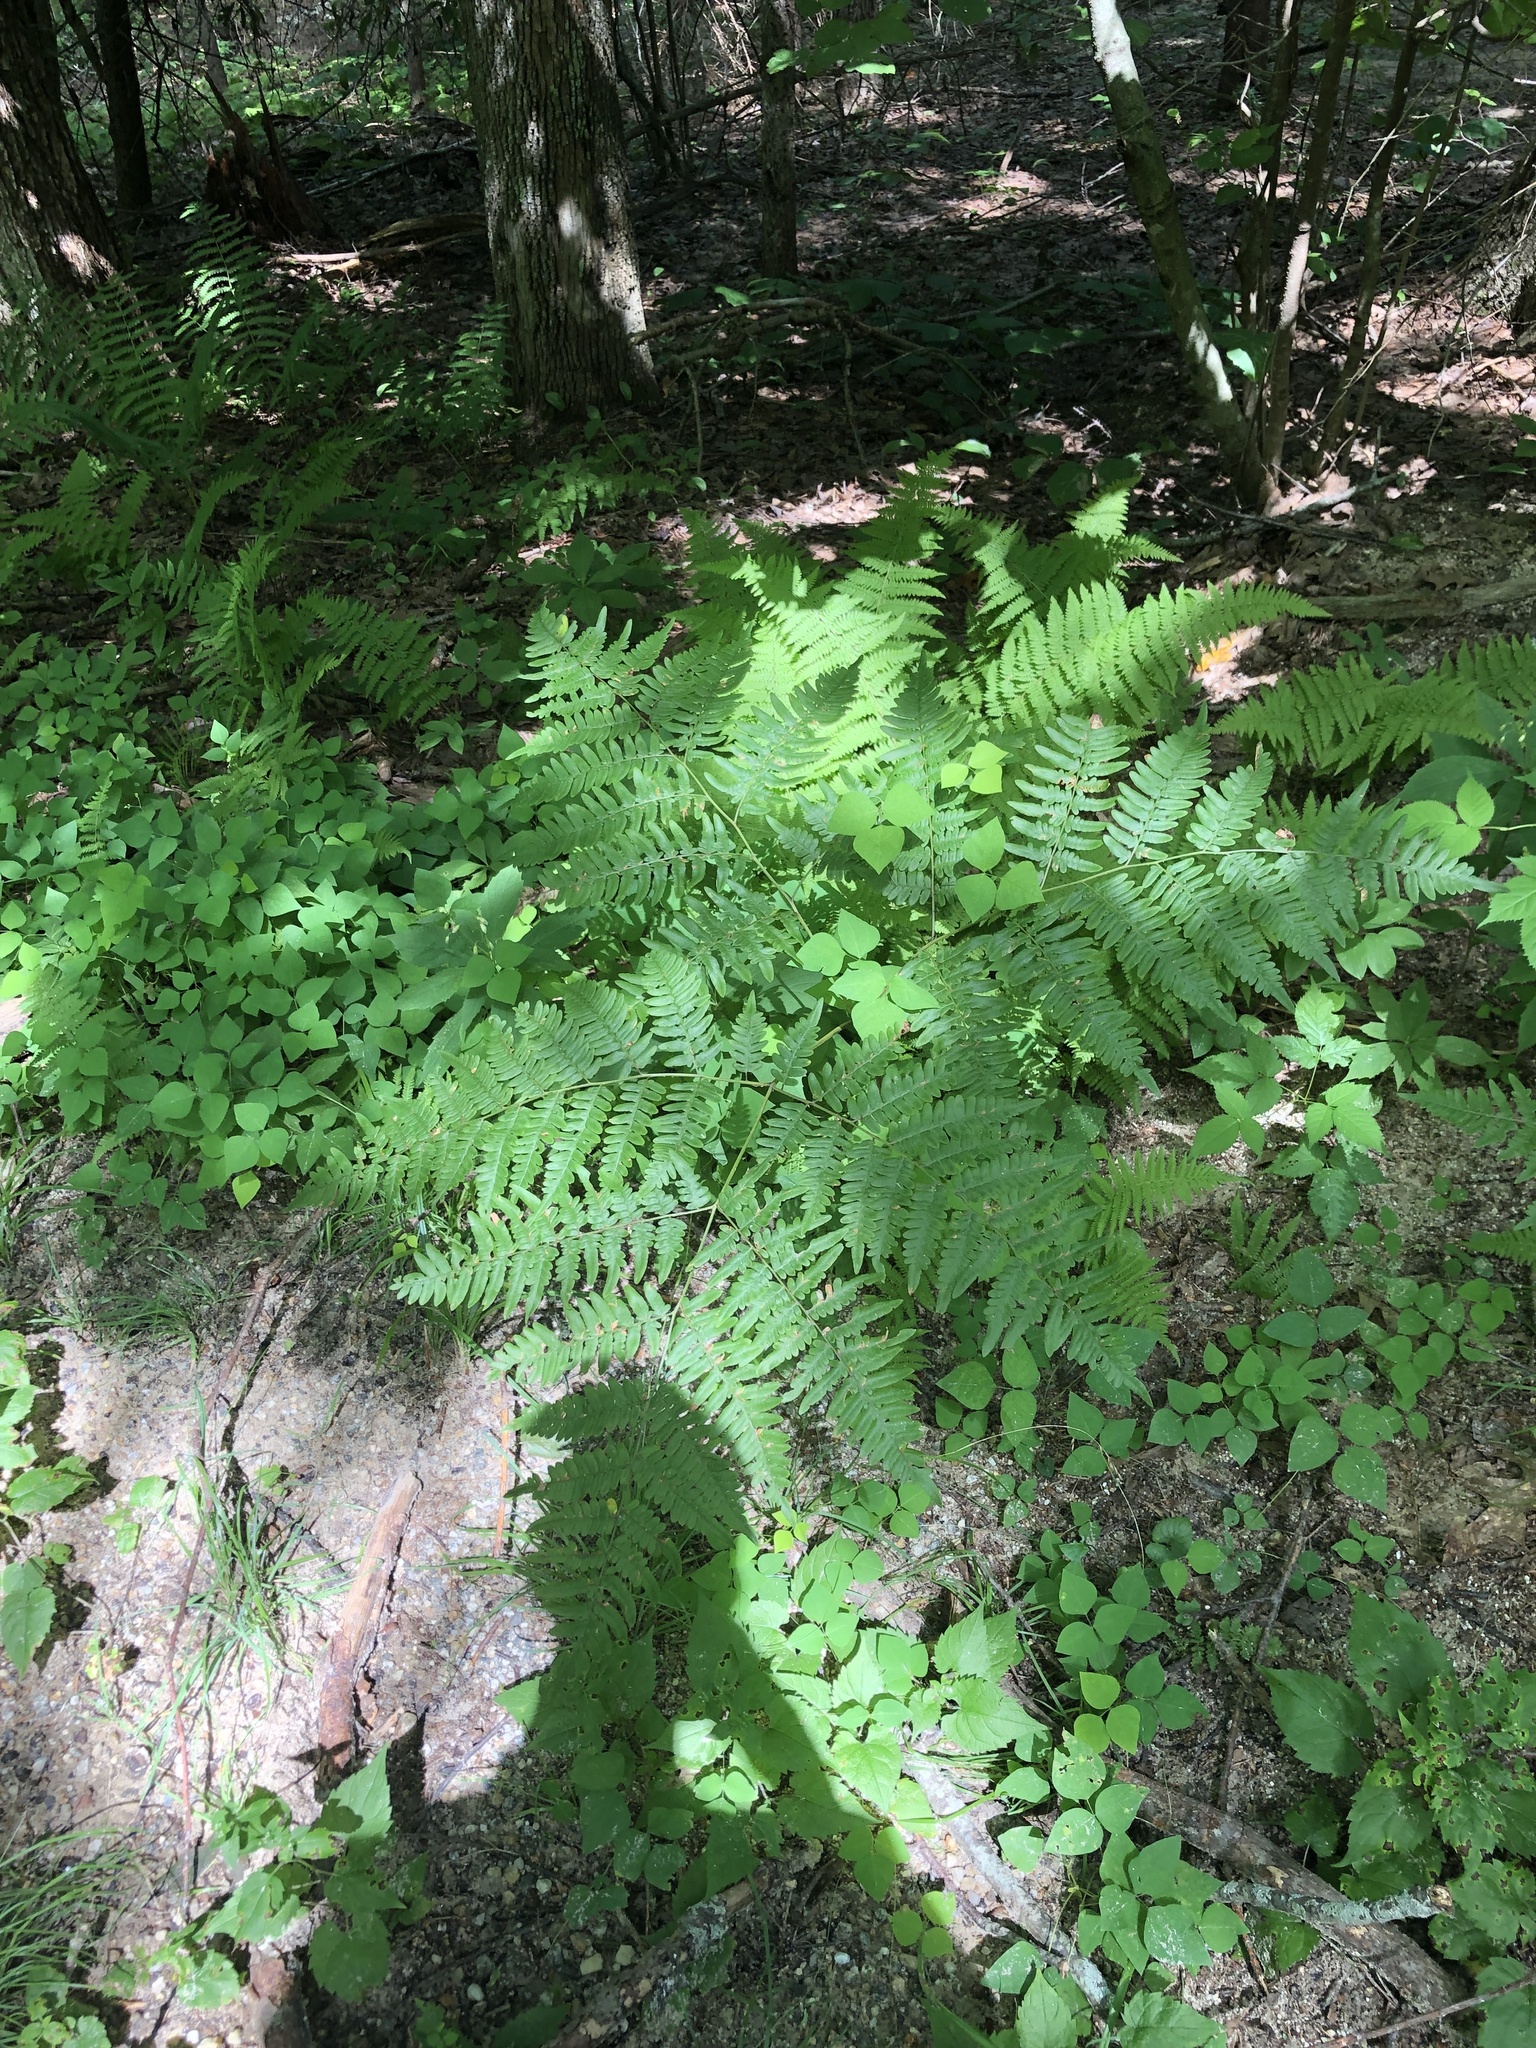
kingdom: Plantae
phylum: Tracheophyta
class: Polypodiopsida
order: Polypodiales
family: Dennstaedtiaceae
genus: Pteridium
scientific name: Pteridium aquilinum
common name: Bracken
